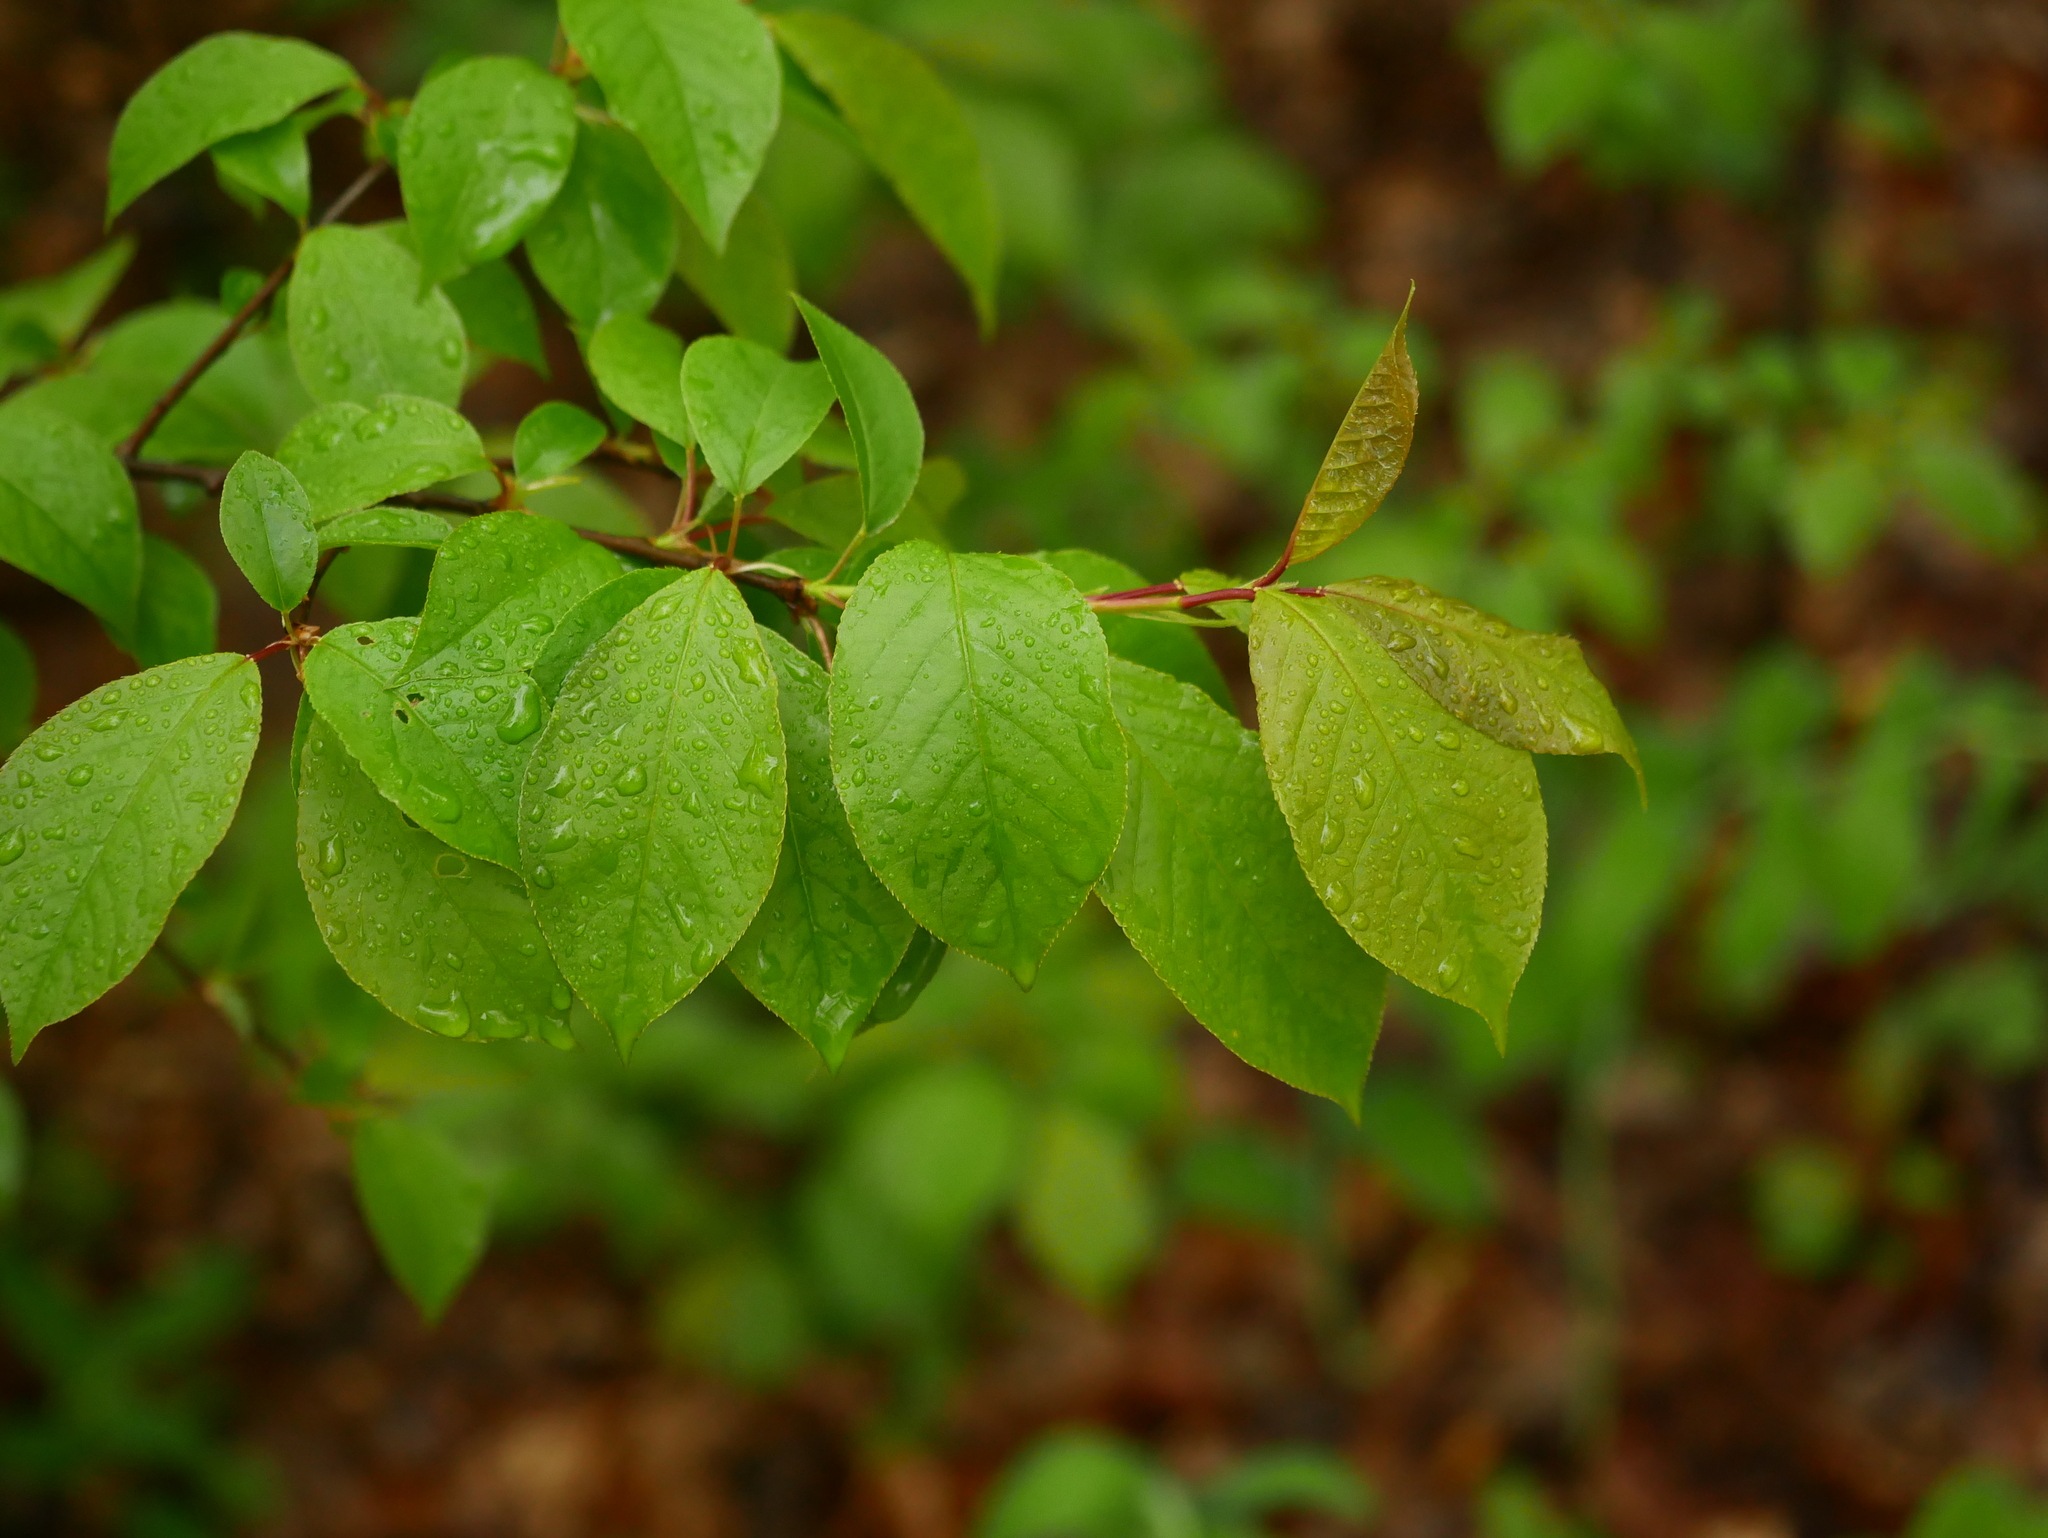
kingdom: Plantae
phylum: Tracheophyta
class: Magnoliopsida
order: Rosales
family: Rosaceae
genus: Prunus
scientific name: Prunus padus
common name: Bird cherry
